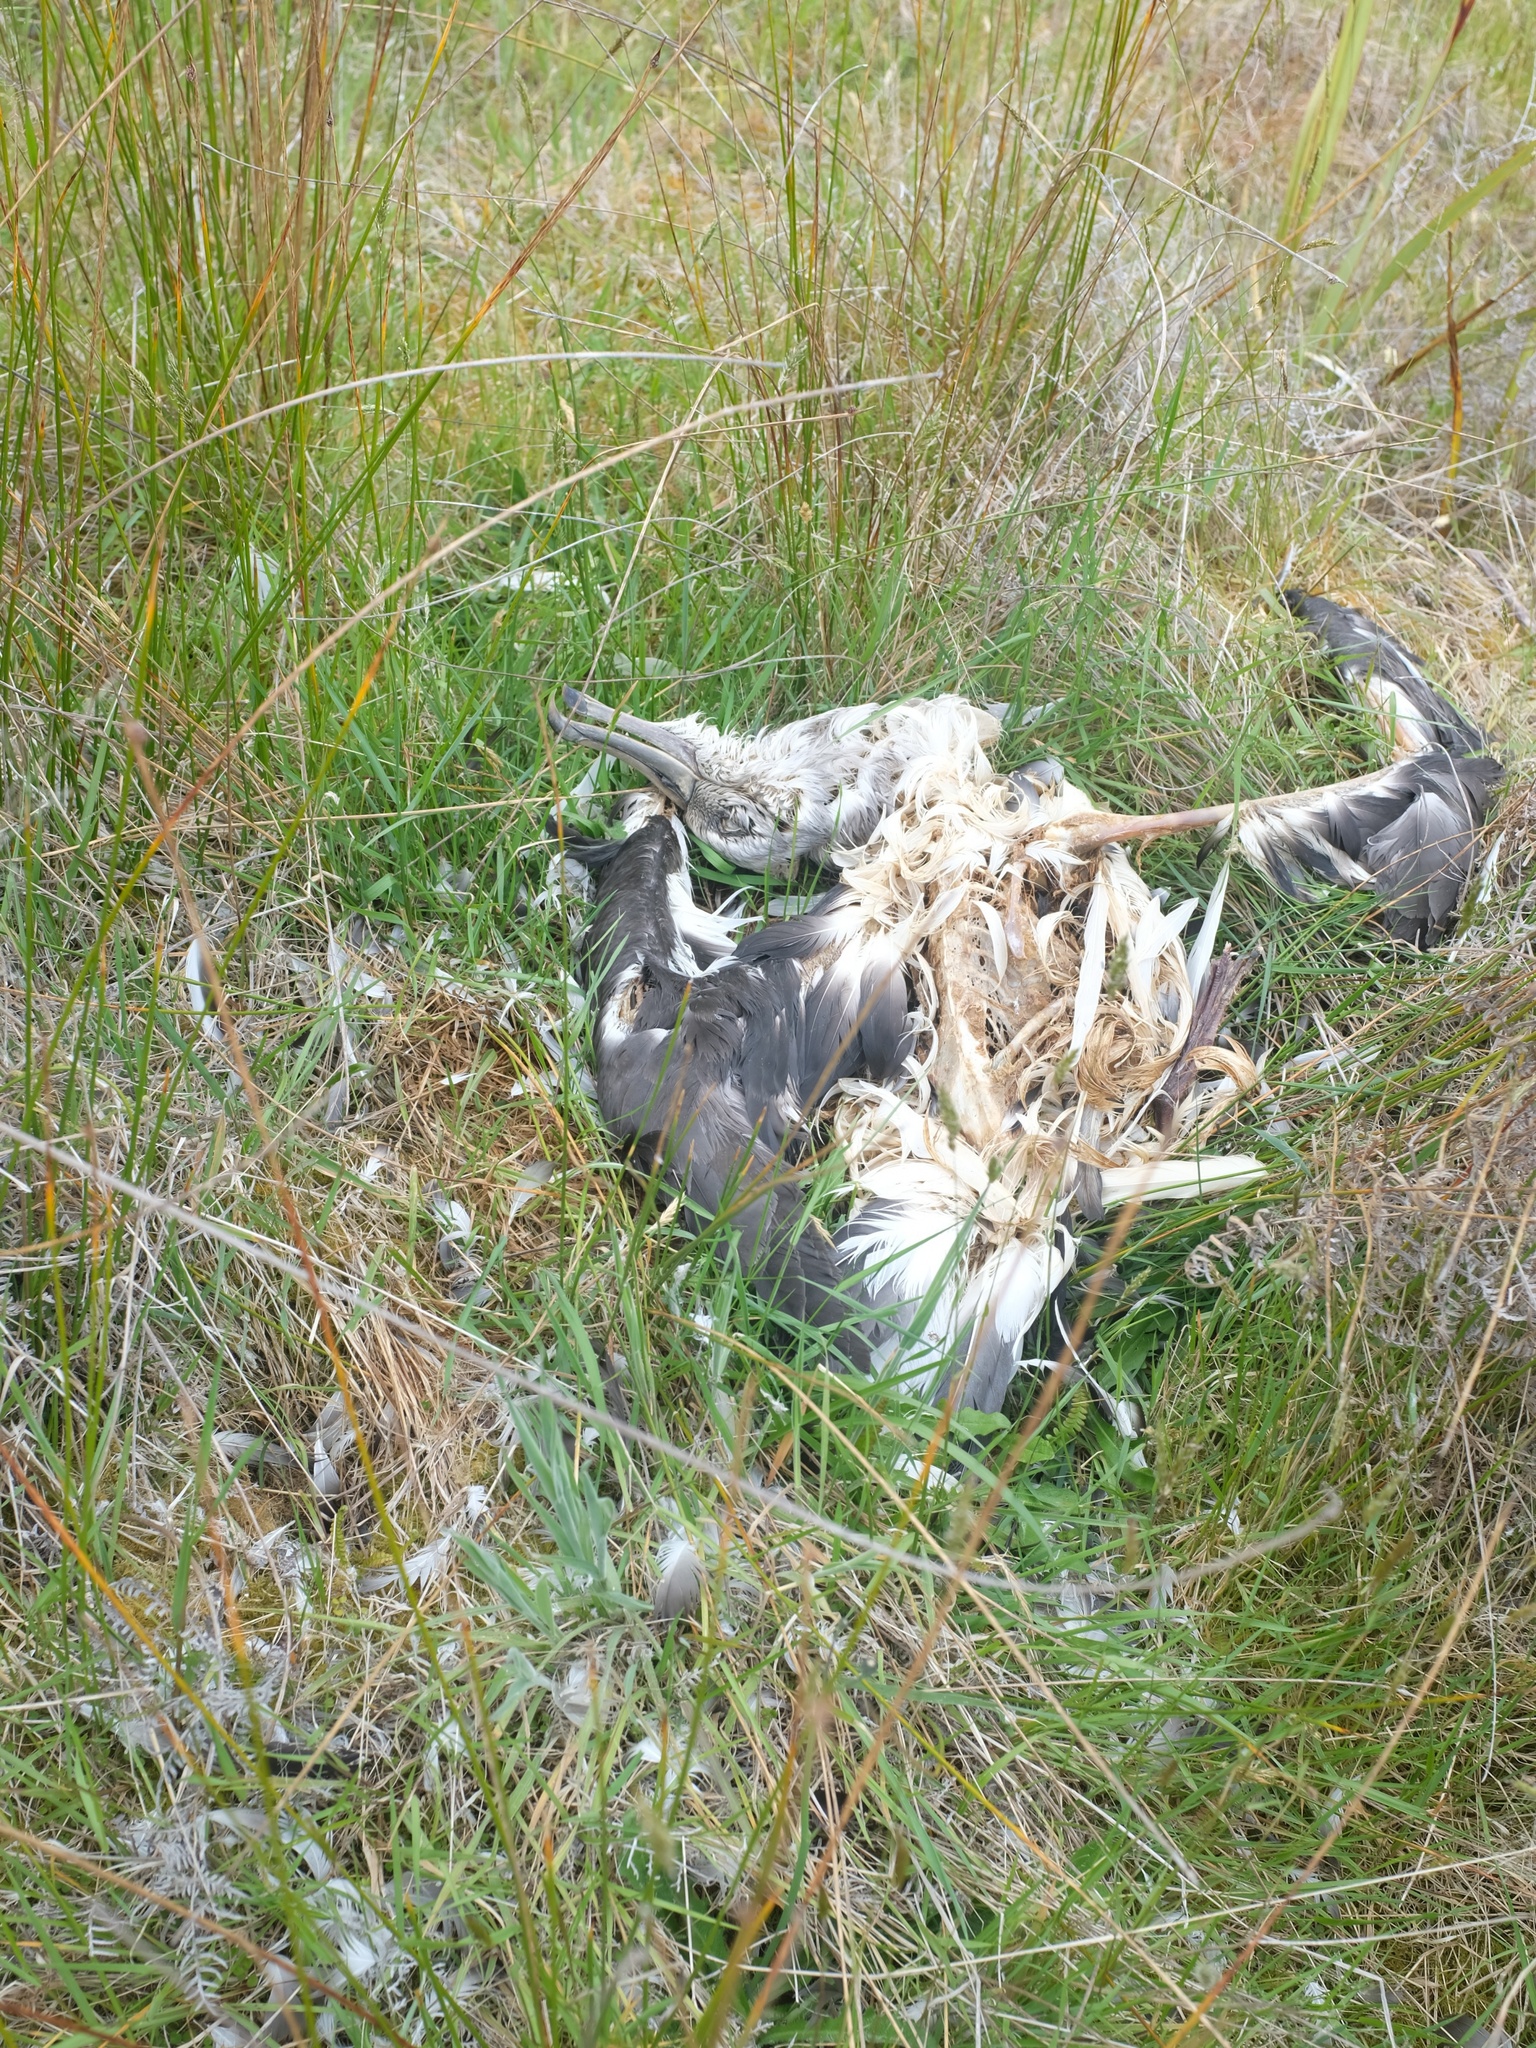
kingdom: Animalia
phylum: Chordata
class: Aves
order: Procellariiformes
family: Diomedeidae
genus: Thalassarche
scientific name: Thalassarche bulleri
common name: Buller's albatross
